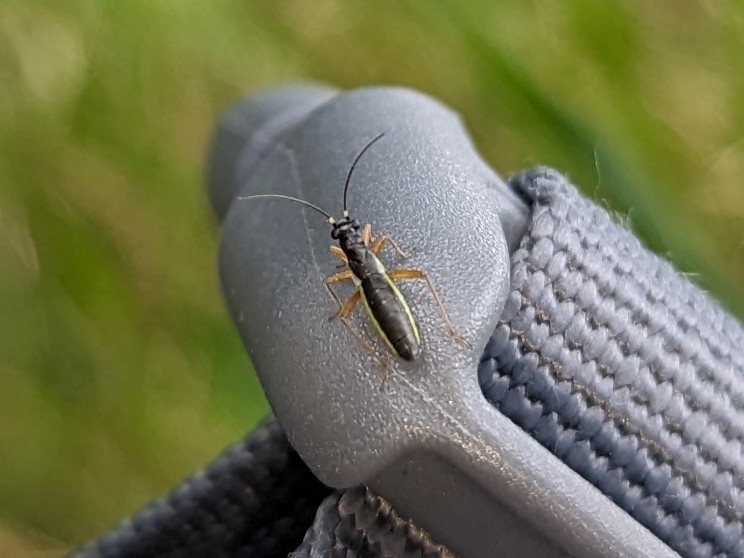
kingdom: Animalia
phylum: Arthropoda
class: Insecta
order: Hemiptera
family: Miridae
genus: Pithanus
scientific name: Pithanus maerkelii
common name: Plant bug
